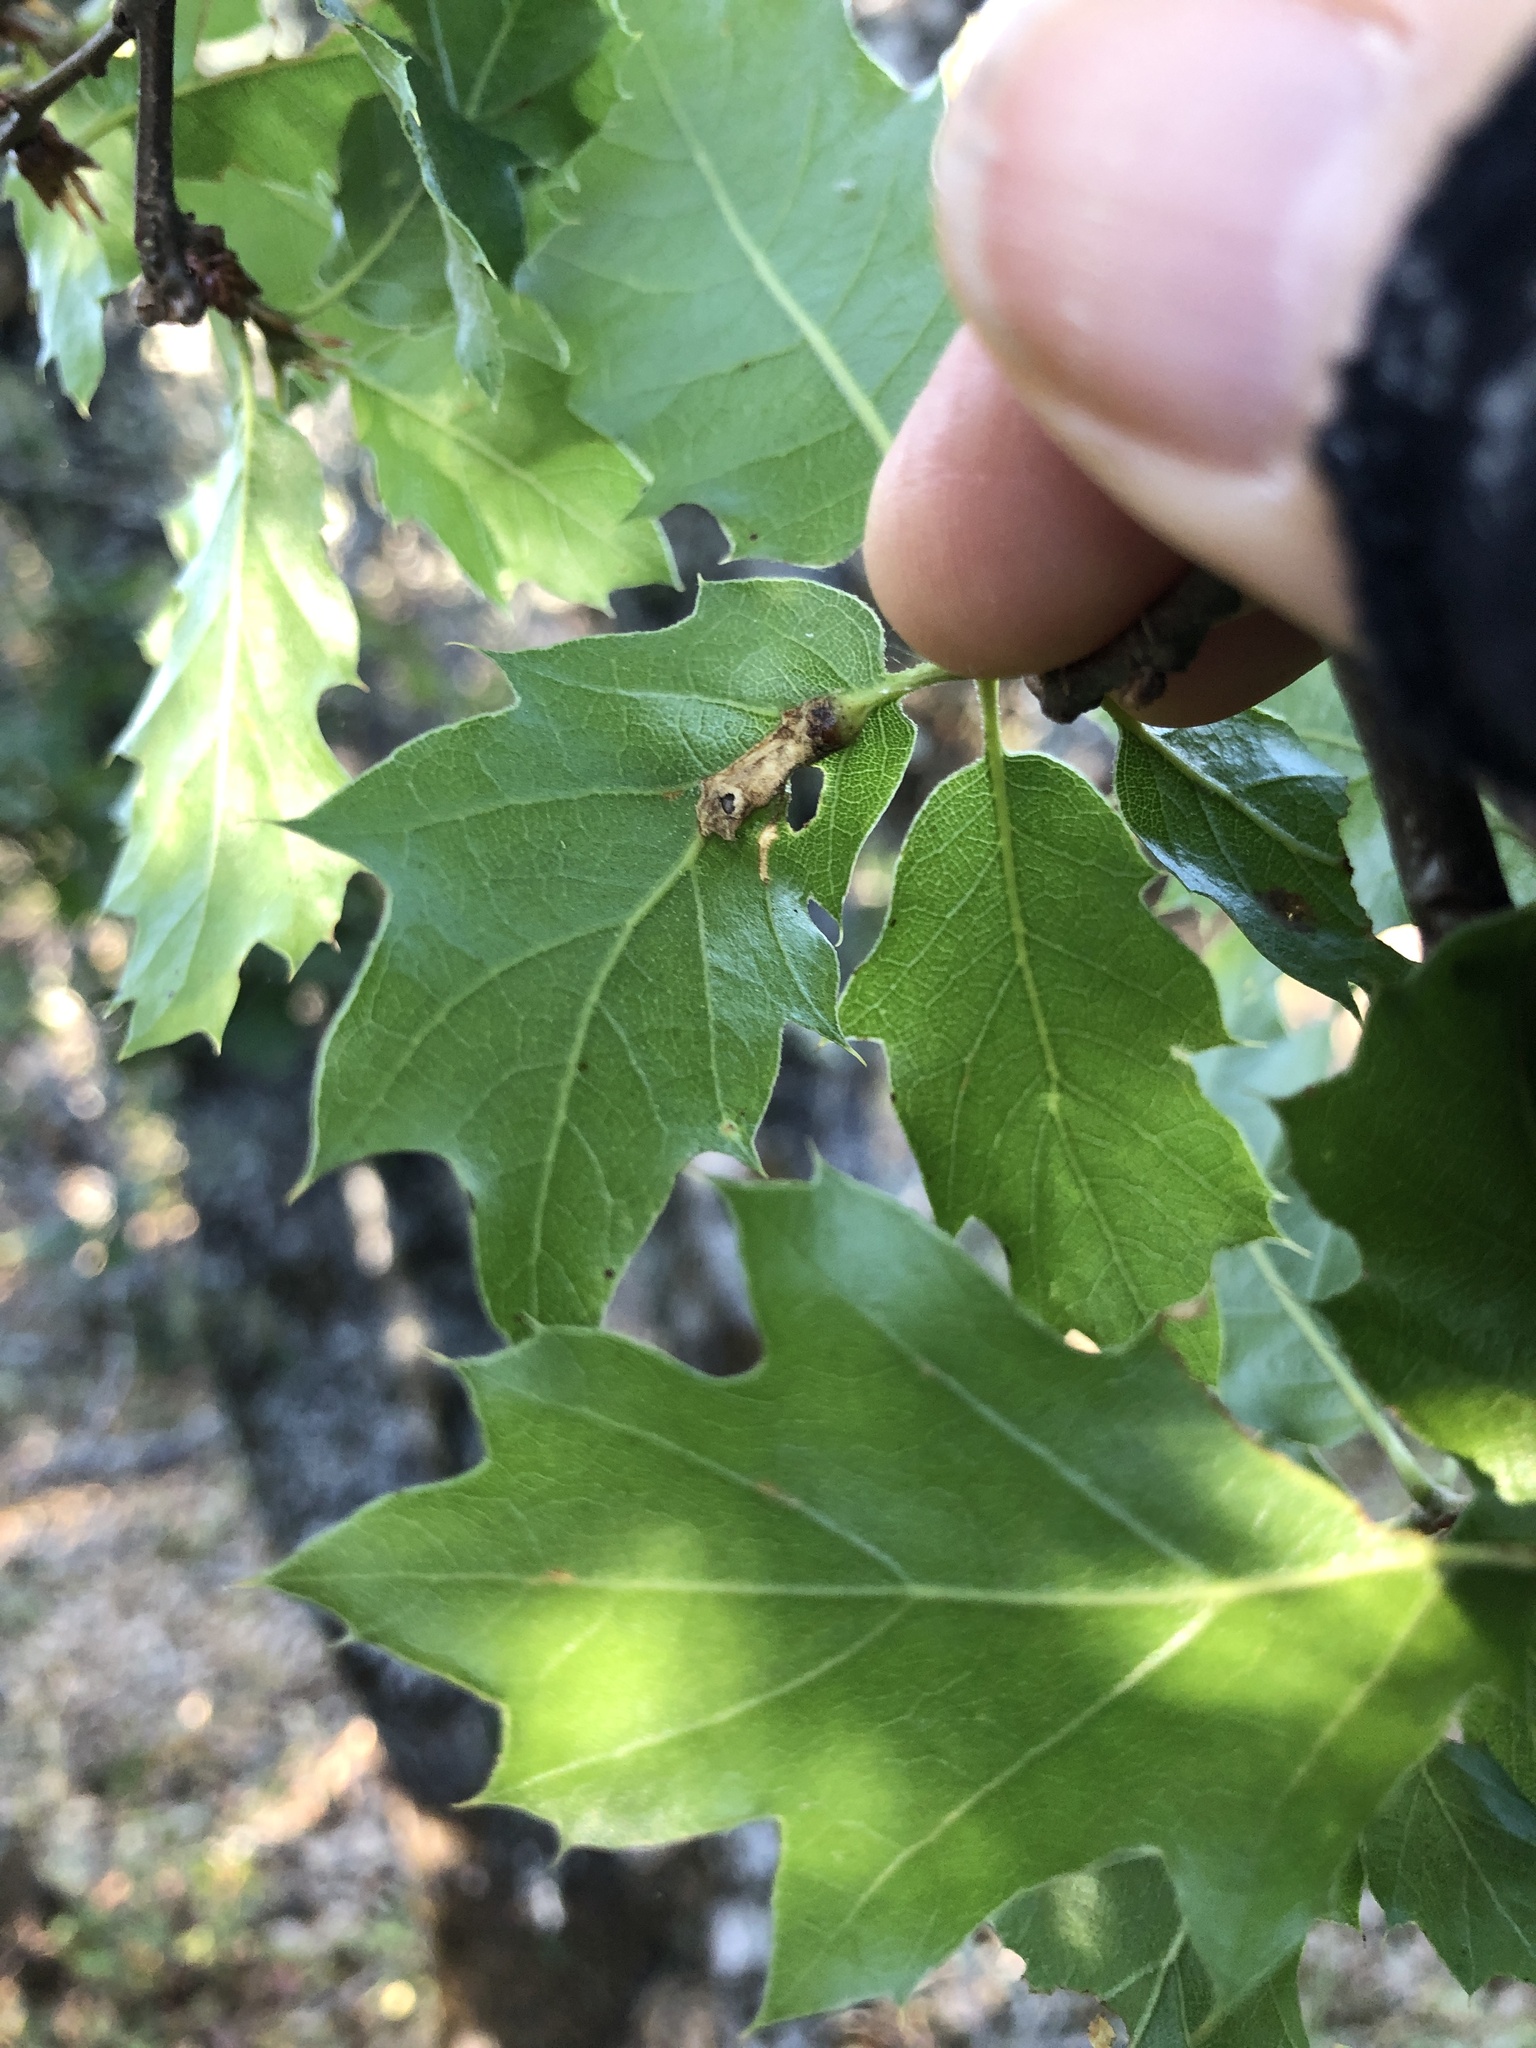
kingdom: Animalia
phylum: Arthropoda
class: Insecta
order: Hymenoptera
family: Cynipidae
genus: Melikaiella
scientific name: Melikaiella
